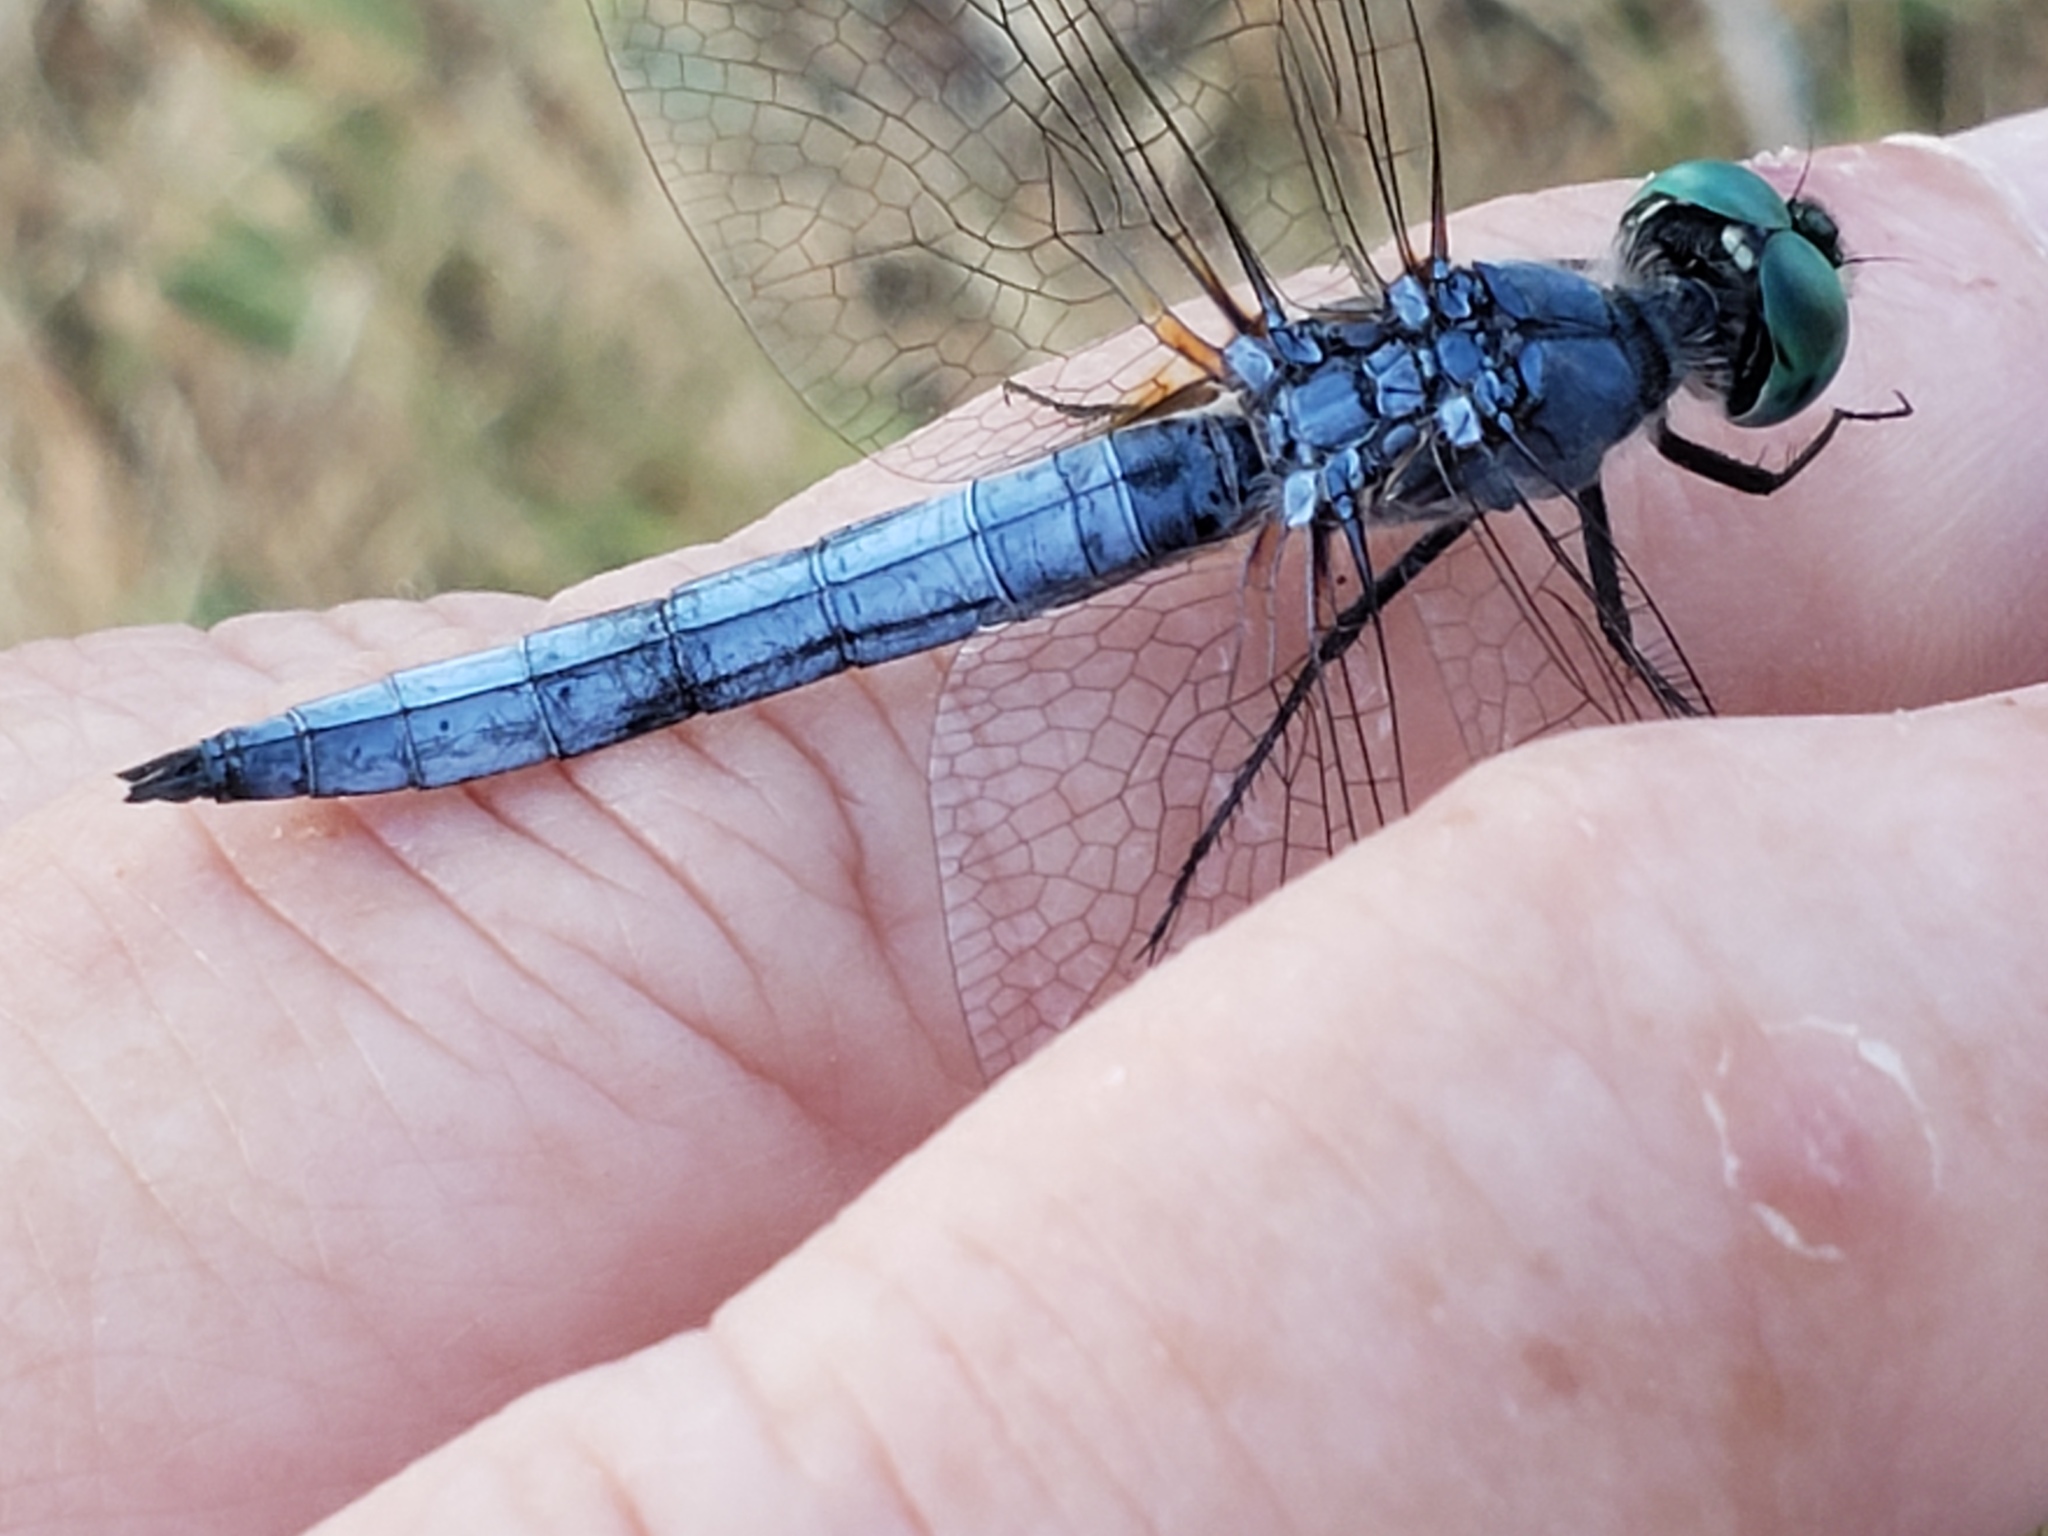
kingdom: Animalia
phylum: Arthropoda
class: Insecta
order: Odonata
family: Libellulidae
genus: Pachydiplax
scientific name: Pachydiplax longipennis
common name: Blue dasher
